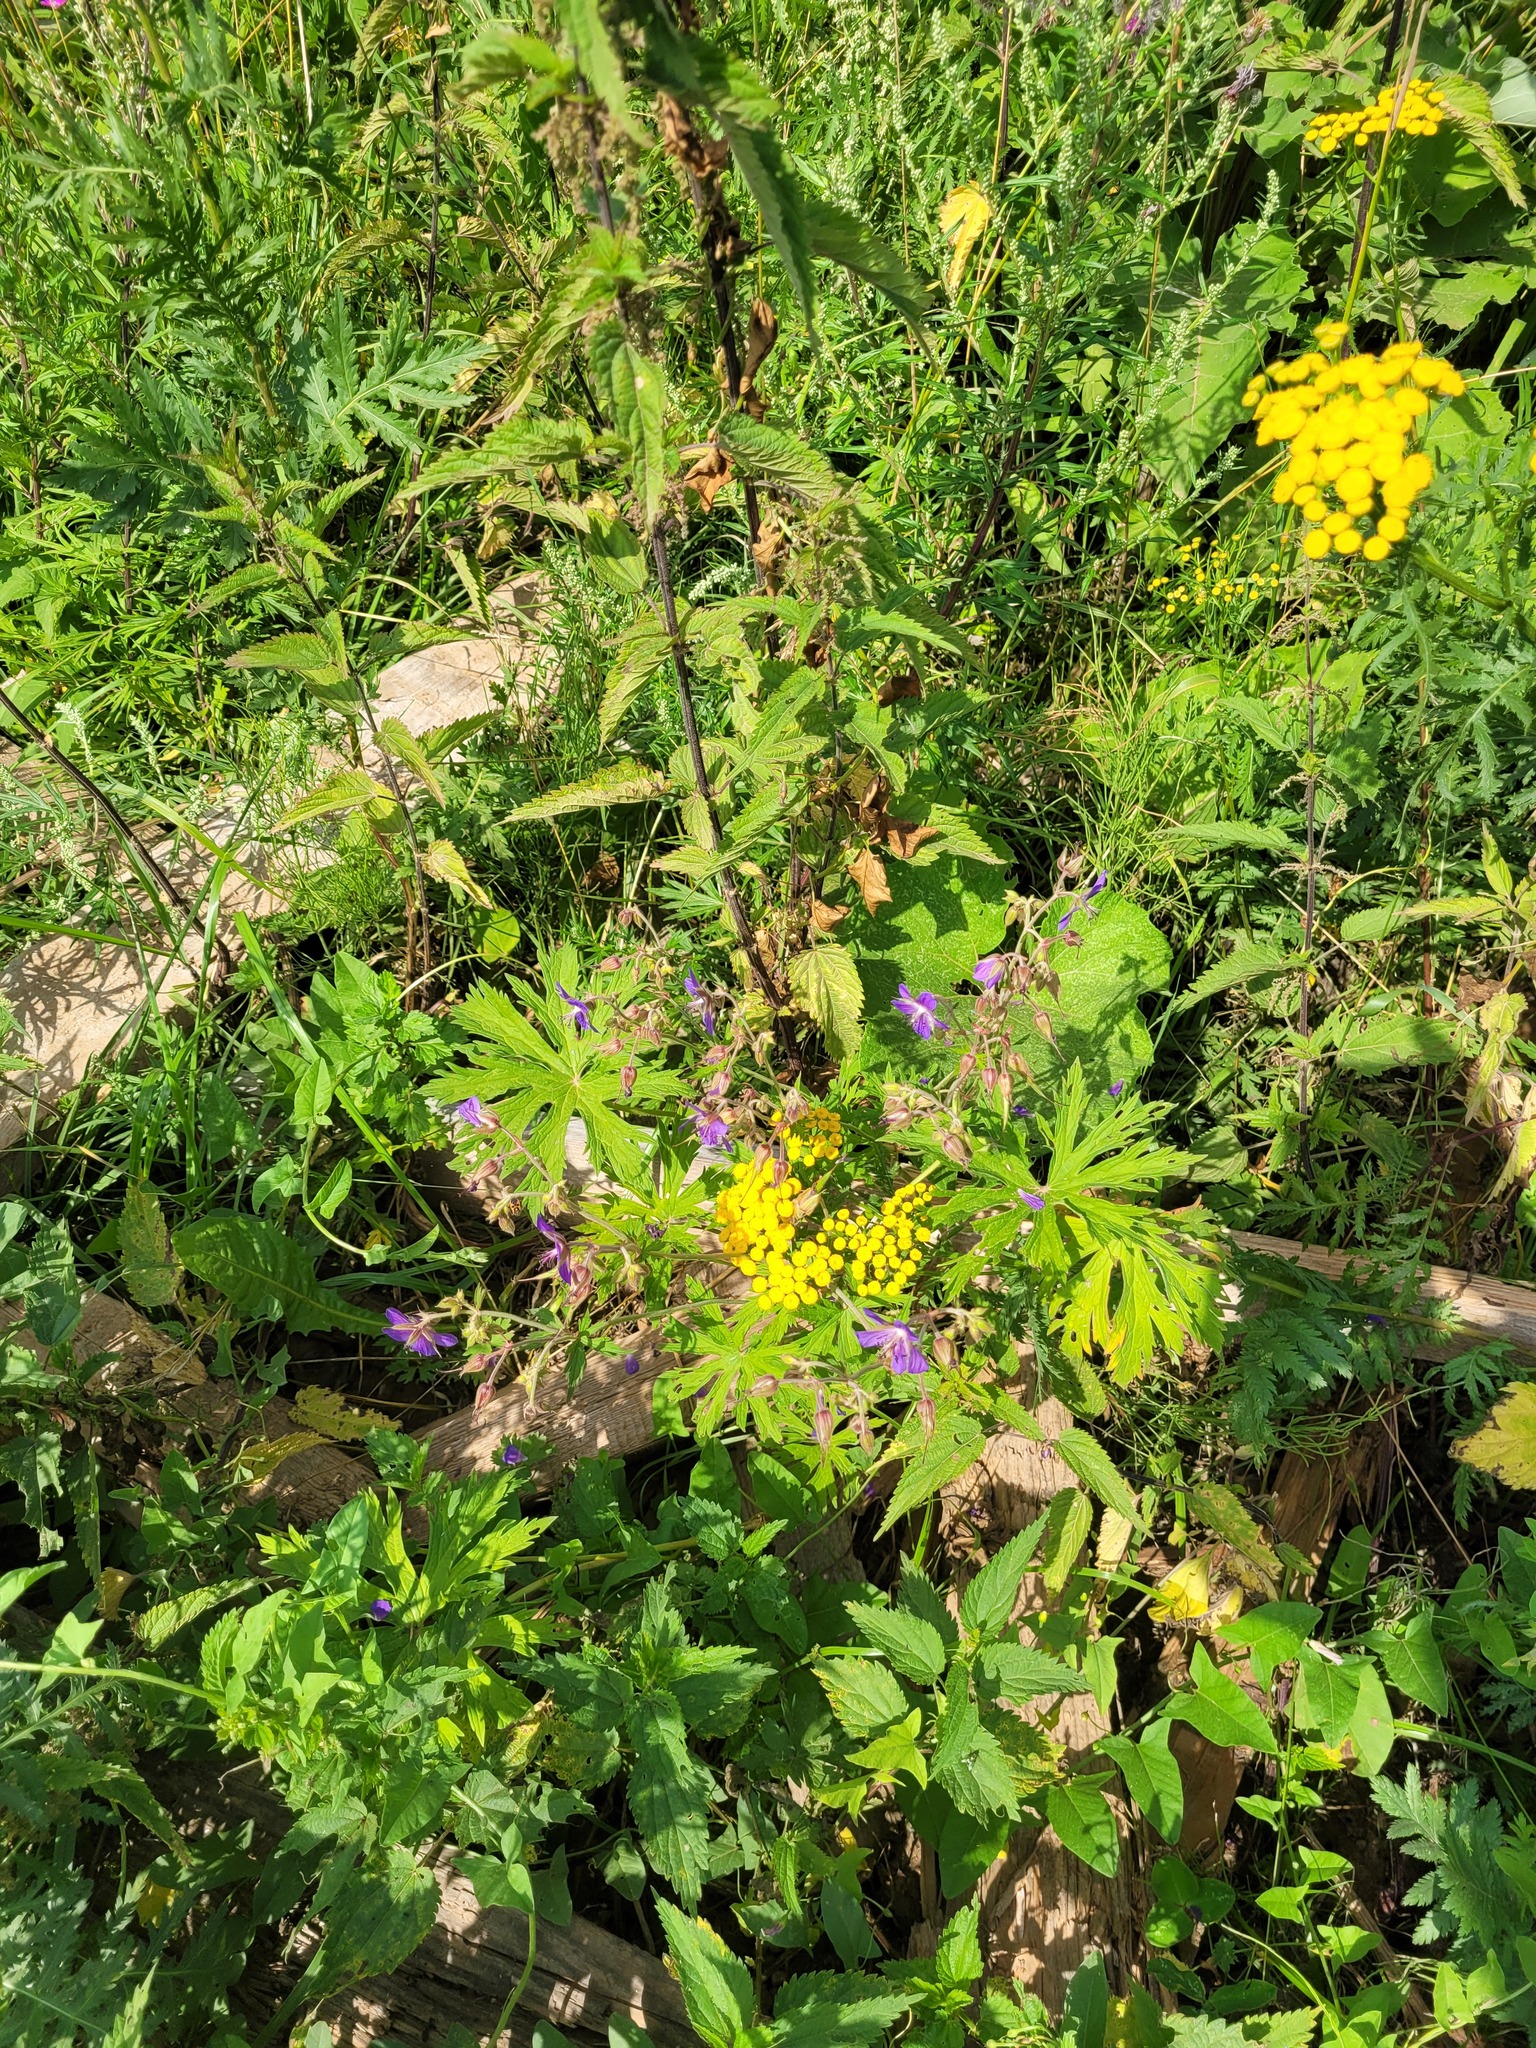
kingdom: Plantae
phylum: Tracheophyta
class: Magnoliopsida
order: Geraniales
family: Geraniaceae
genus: Geranium
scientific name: Geranium pratense
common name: Meadow crane's-bill
